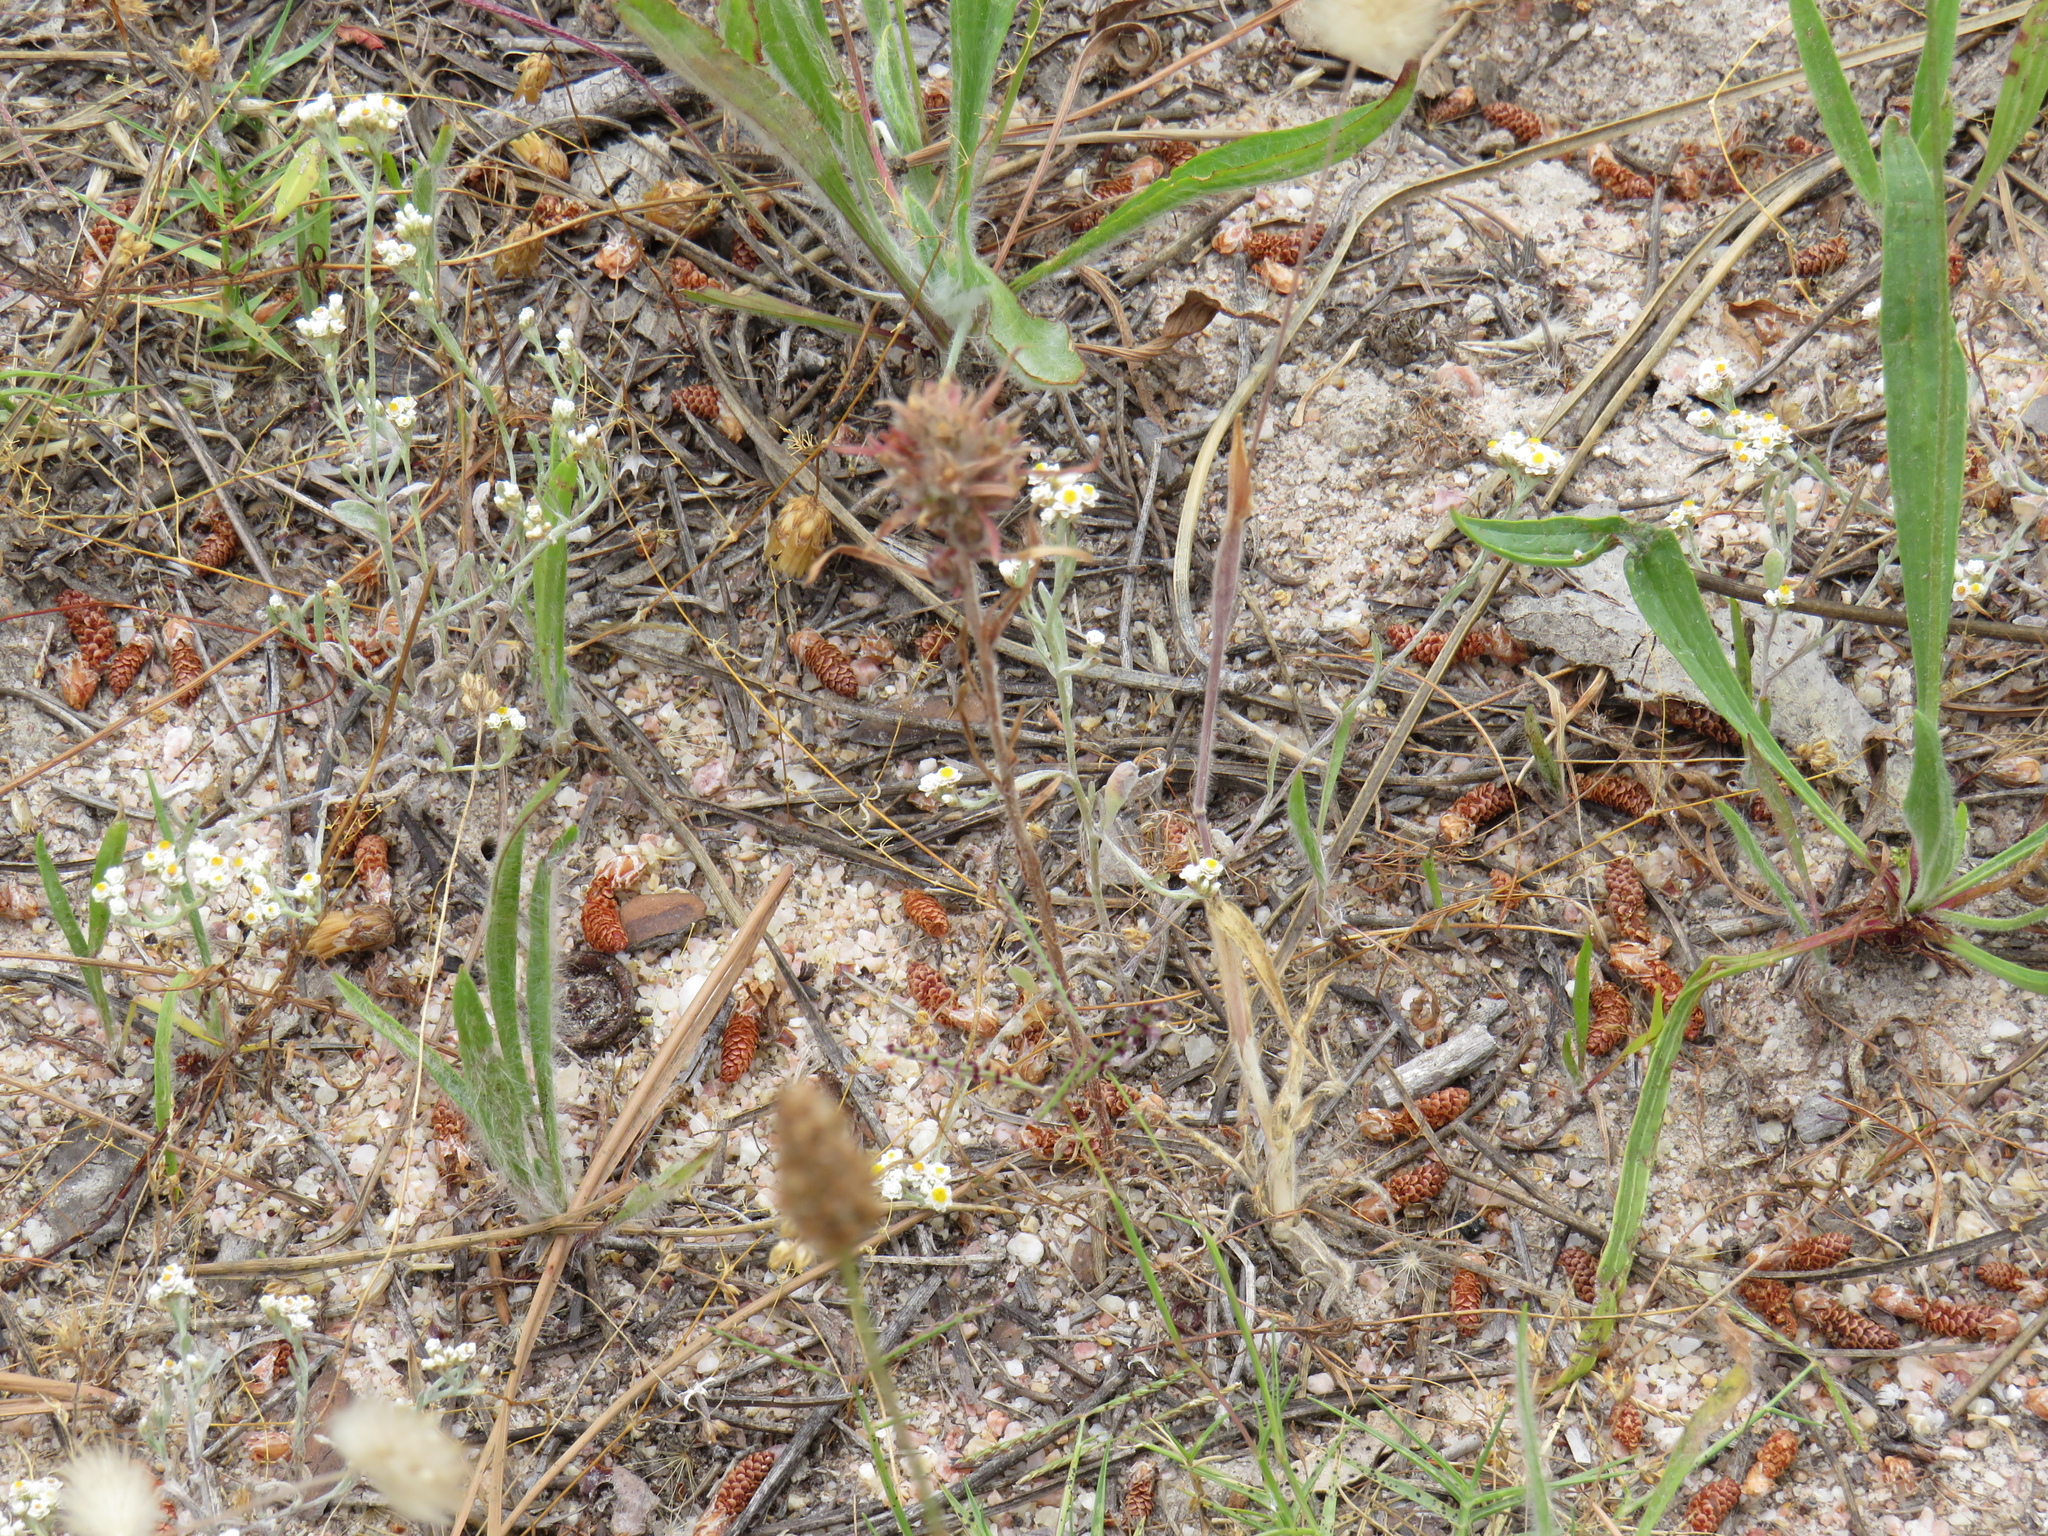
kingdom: Plantae
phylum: Tracheophyta
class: Magnoliopsida
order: Asterales
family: Campanulaceae
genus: Microcodon
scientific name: Microcodon glomeratus
